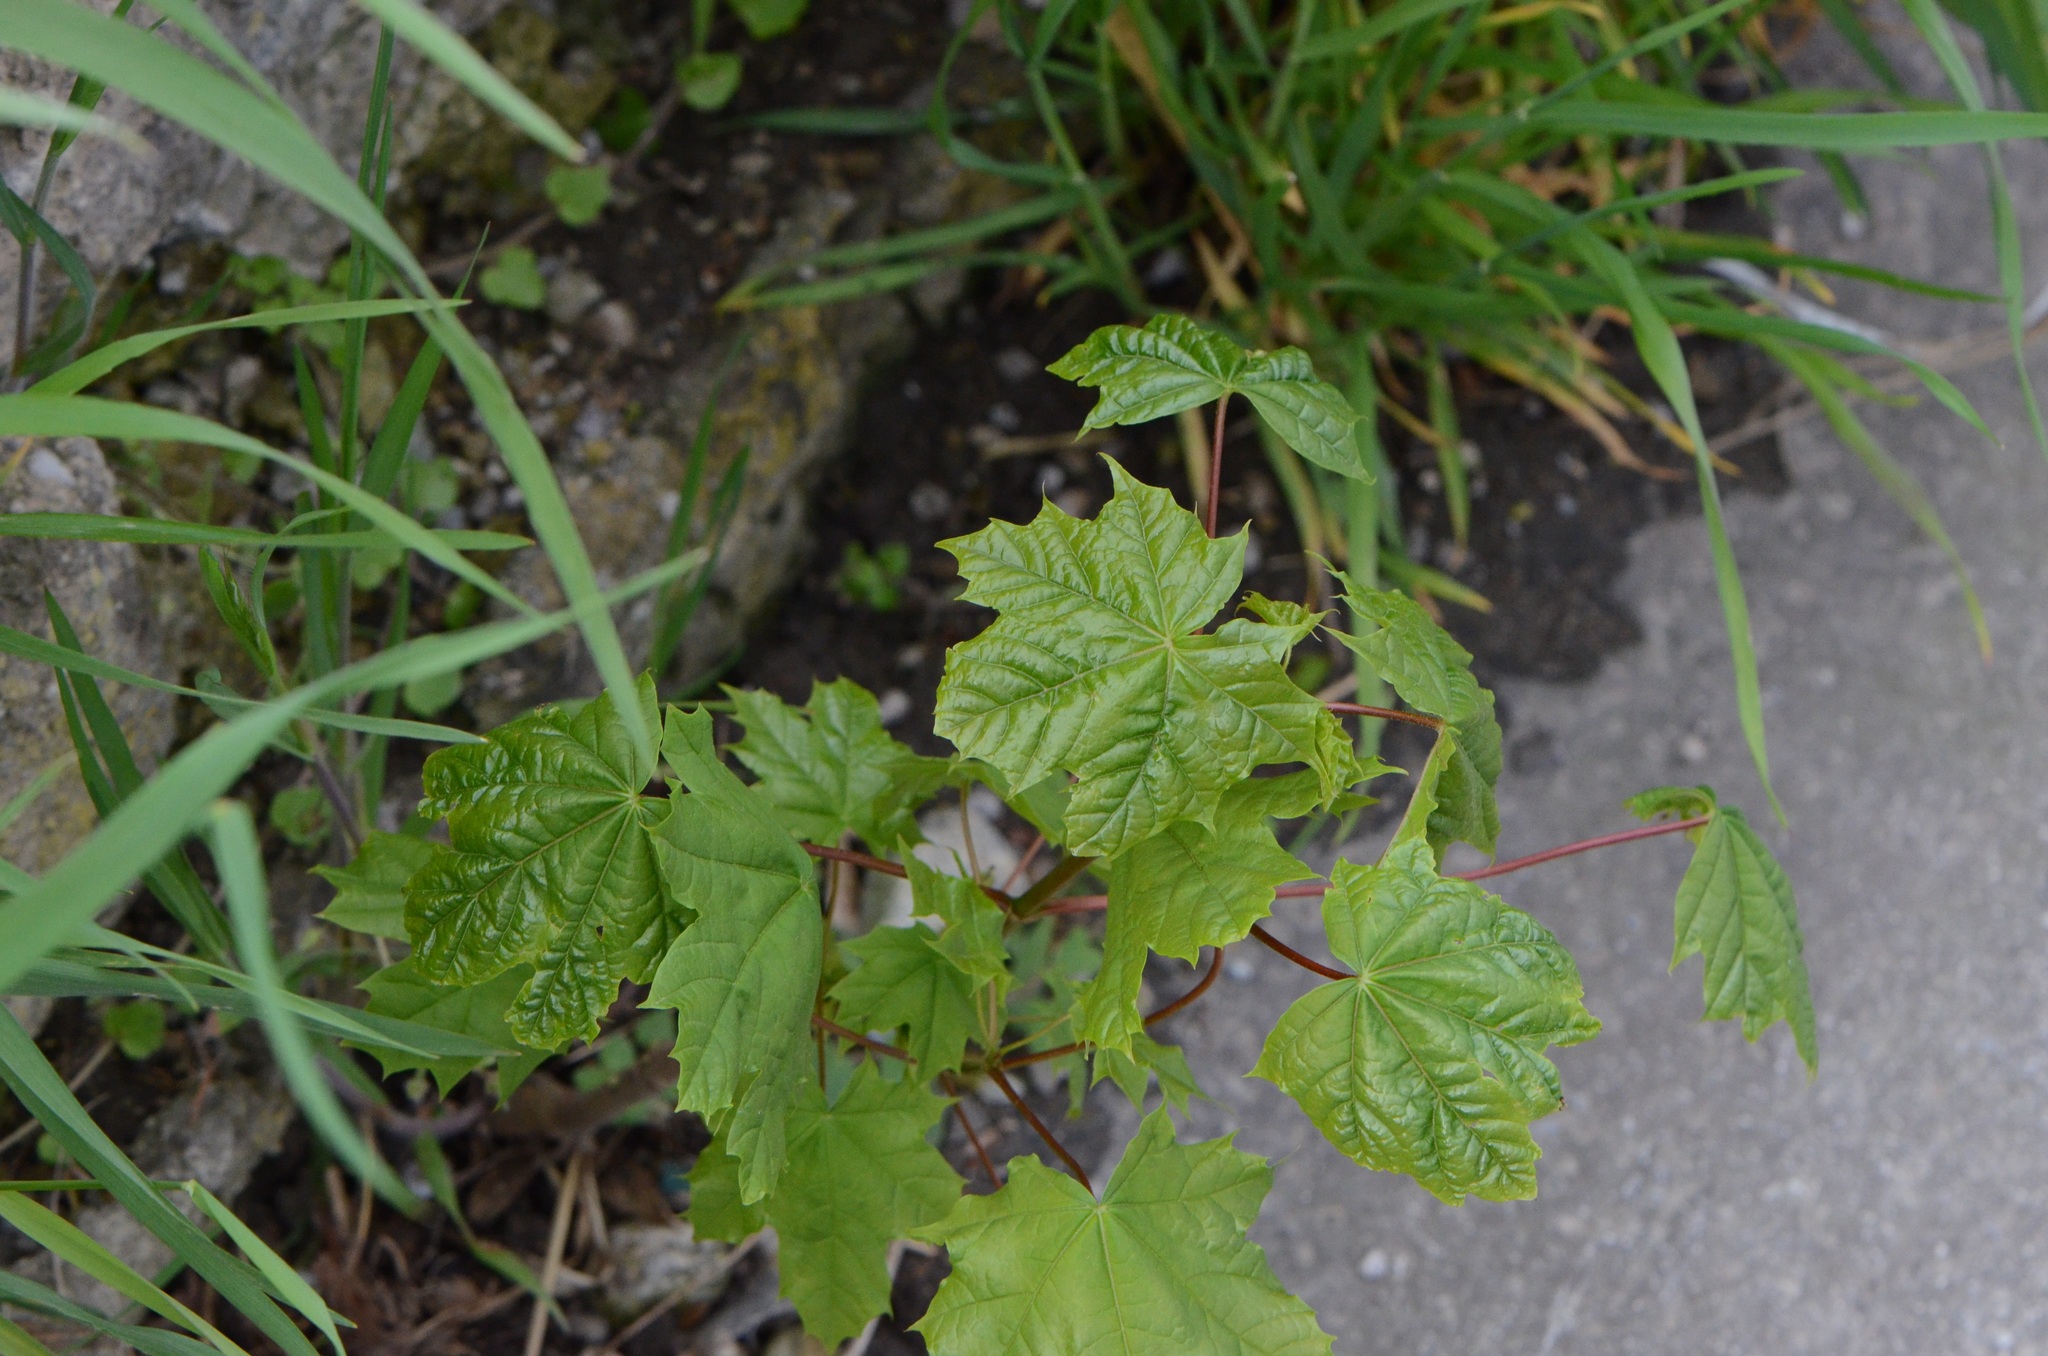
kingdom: Plantae
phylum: Tracheophyta
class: Magnoliopsida
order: Sapindales
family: Sapindaceae
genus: Acer
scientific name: Acer platanoides
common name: Norway maple
